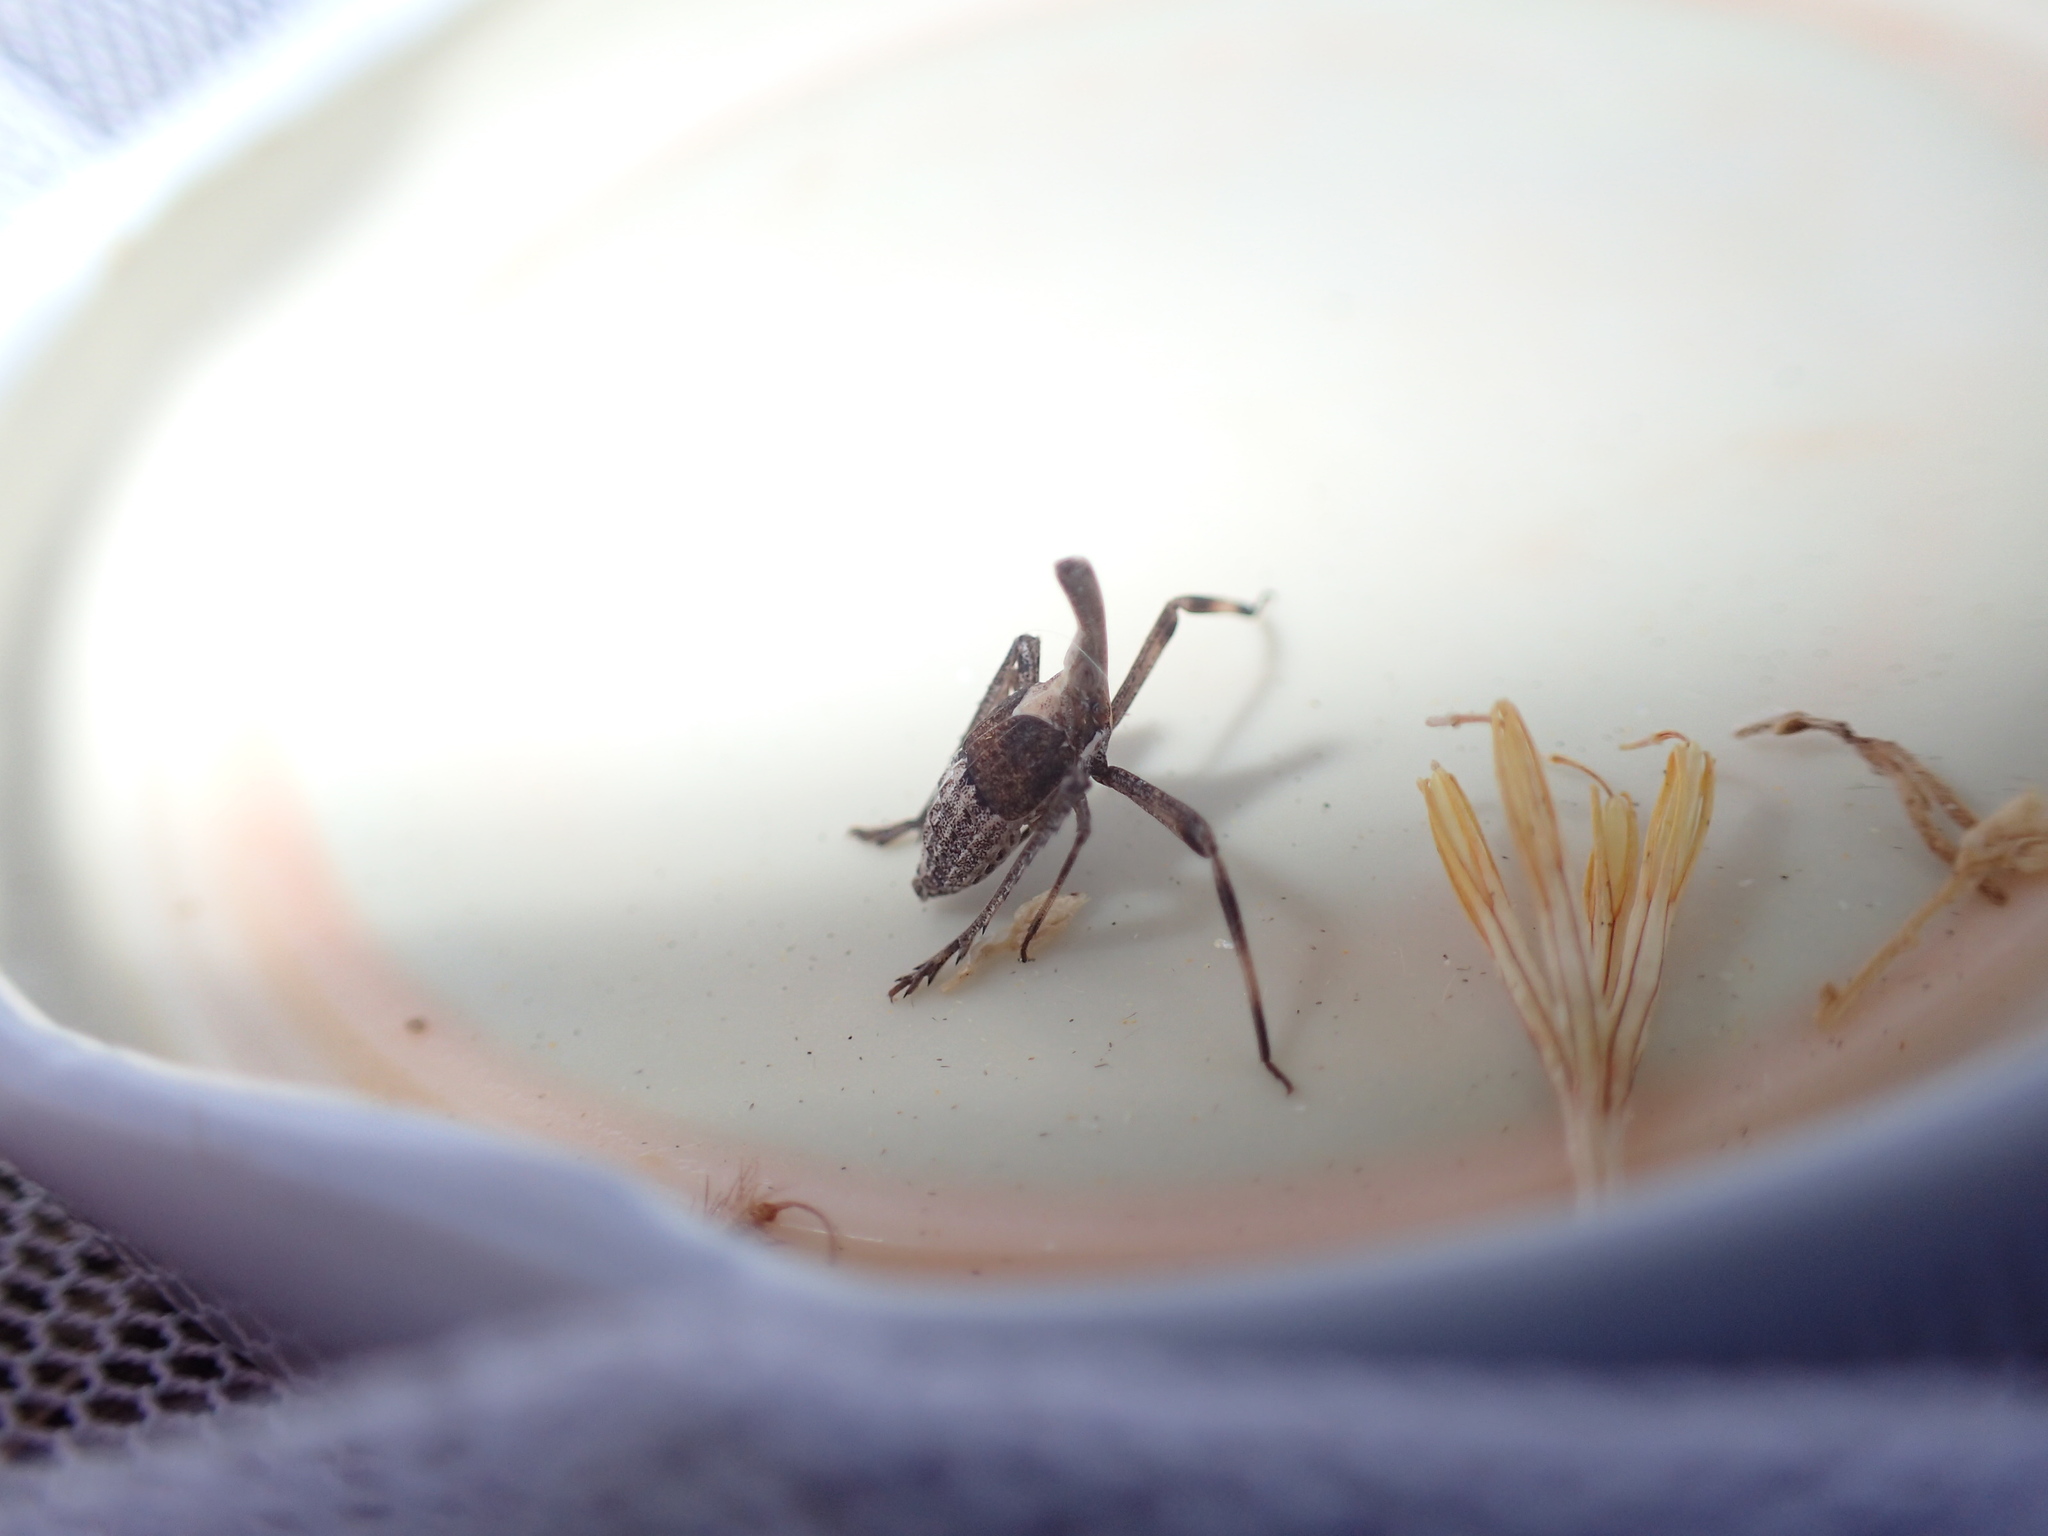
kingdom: Animalia
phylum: Arthropoda
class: Insecta
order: Hemiptera
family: Dictyopharidae
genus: Almana
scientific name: Almana longipes
